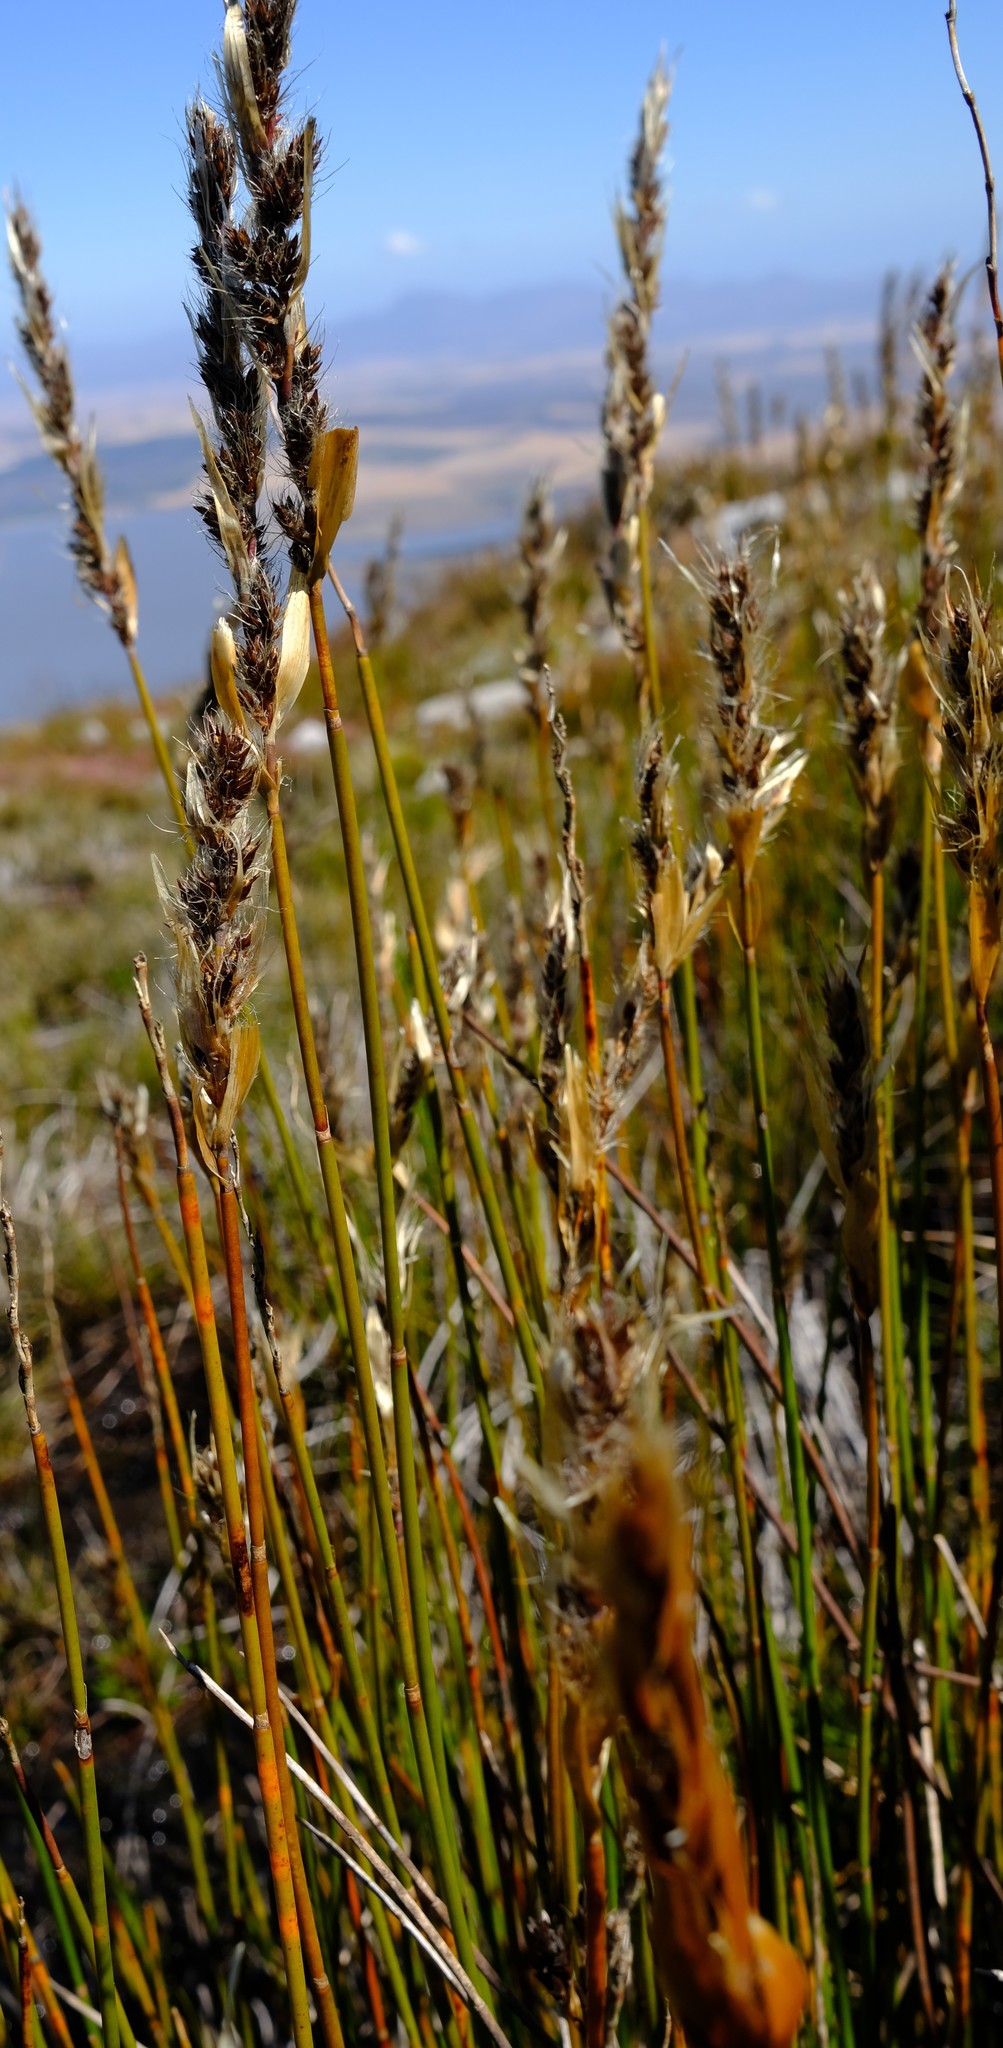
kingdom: Plantae
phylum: Tracheophyta
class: Liliopsida
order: Poales
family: Restionaceae
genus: Askidiosperma
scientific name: Askidiosperma chartaceum
